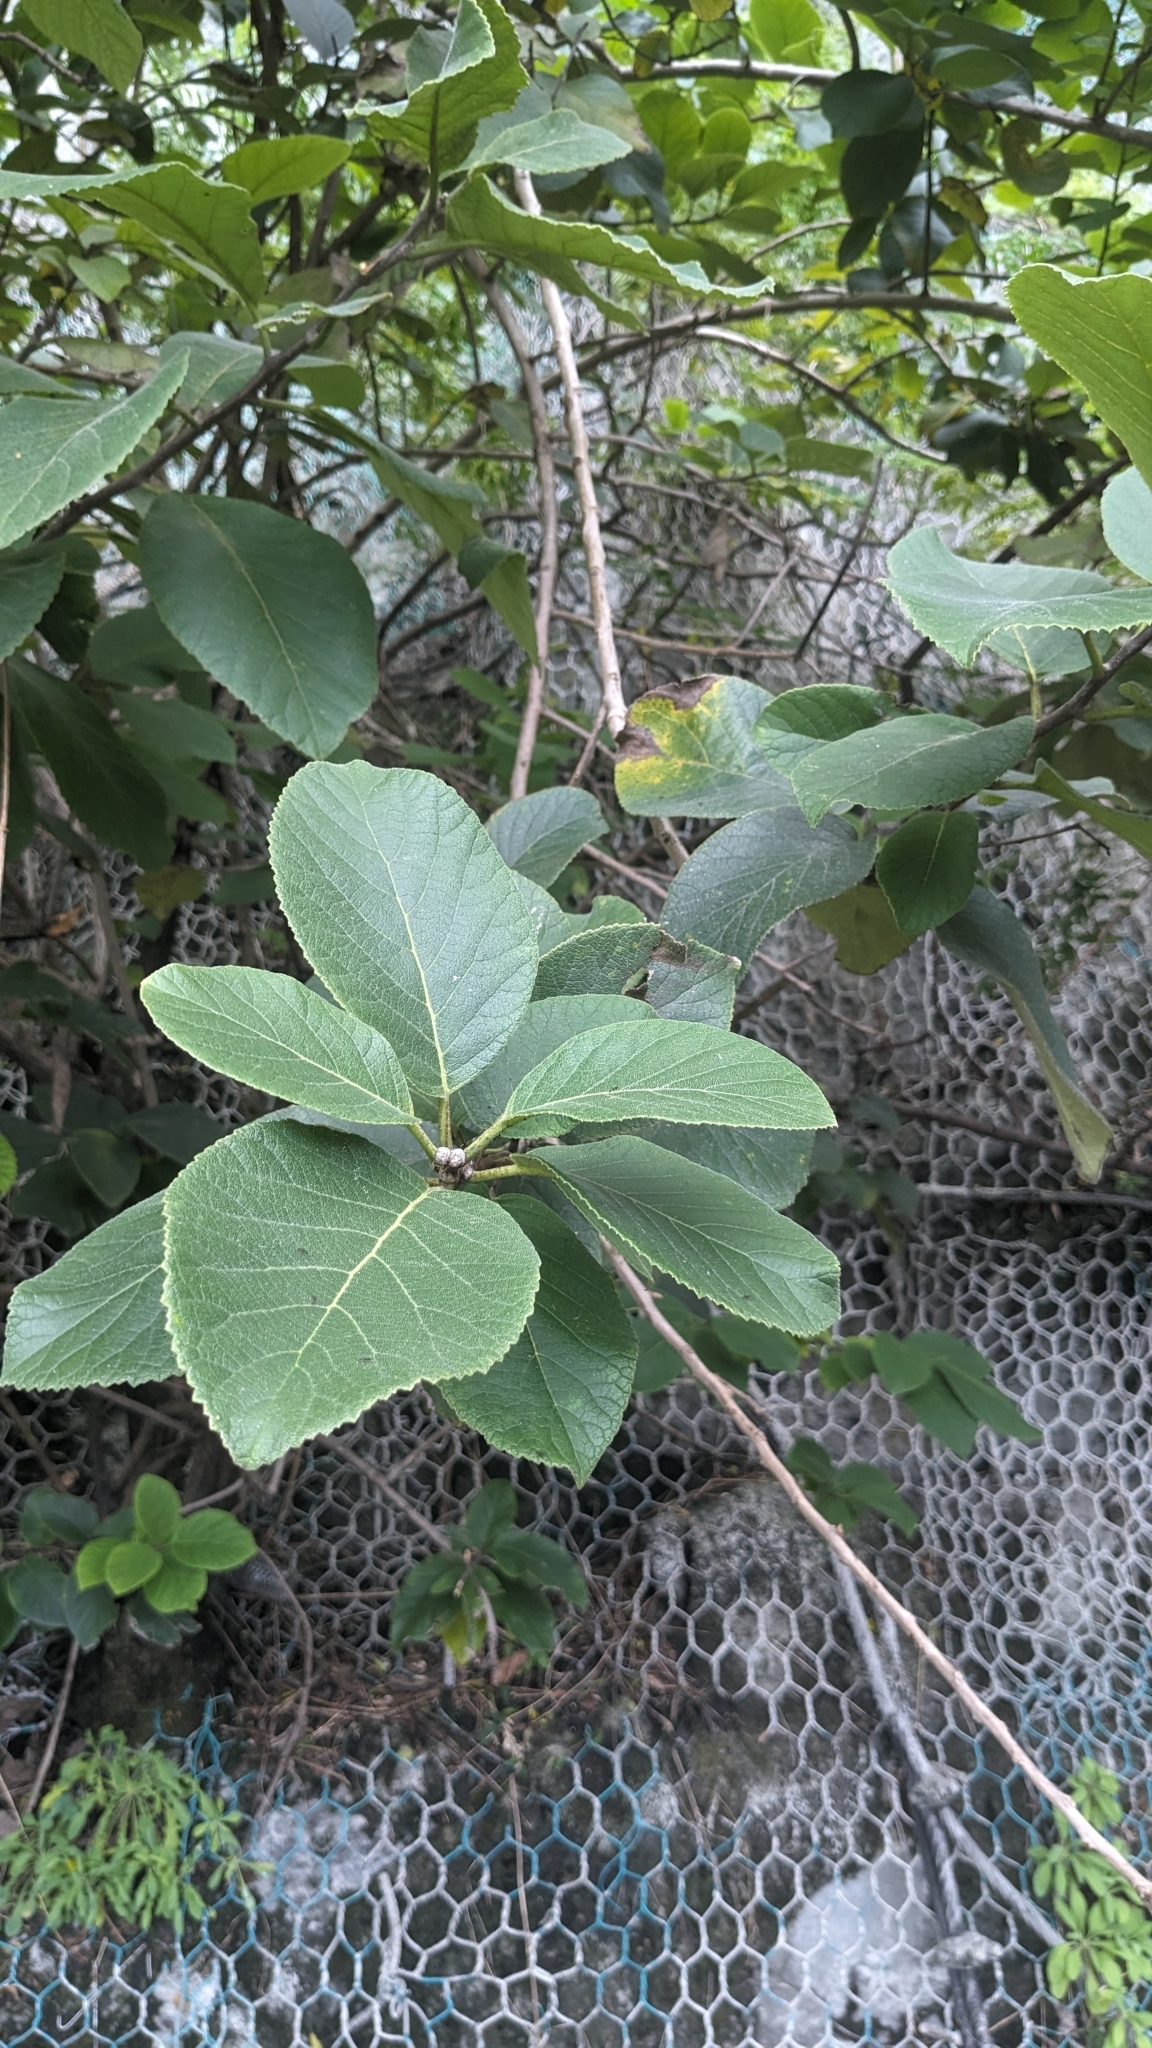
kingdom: Plantae
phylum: Tracheophyta
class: Magnoliopsida
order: Boraginales
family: Ehretiaceae
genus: Ehretia
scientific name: Ehretia dicksonii
